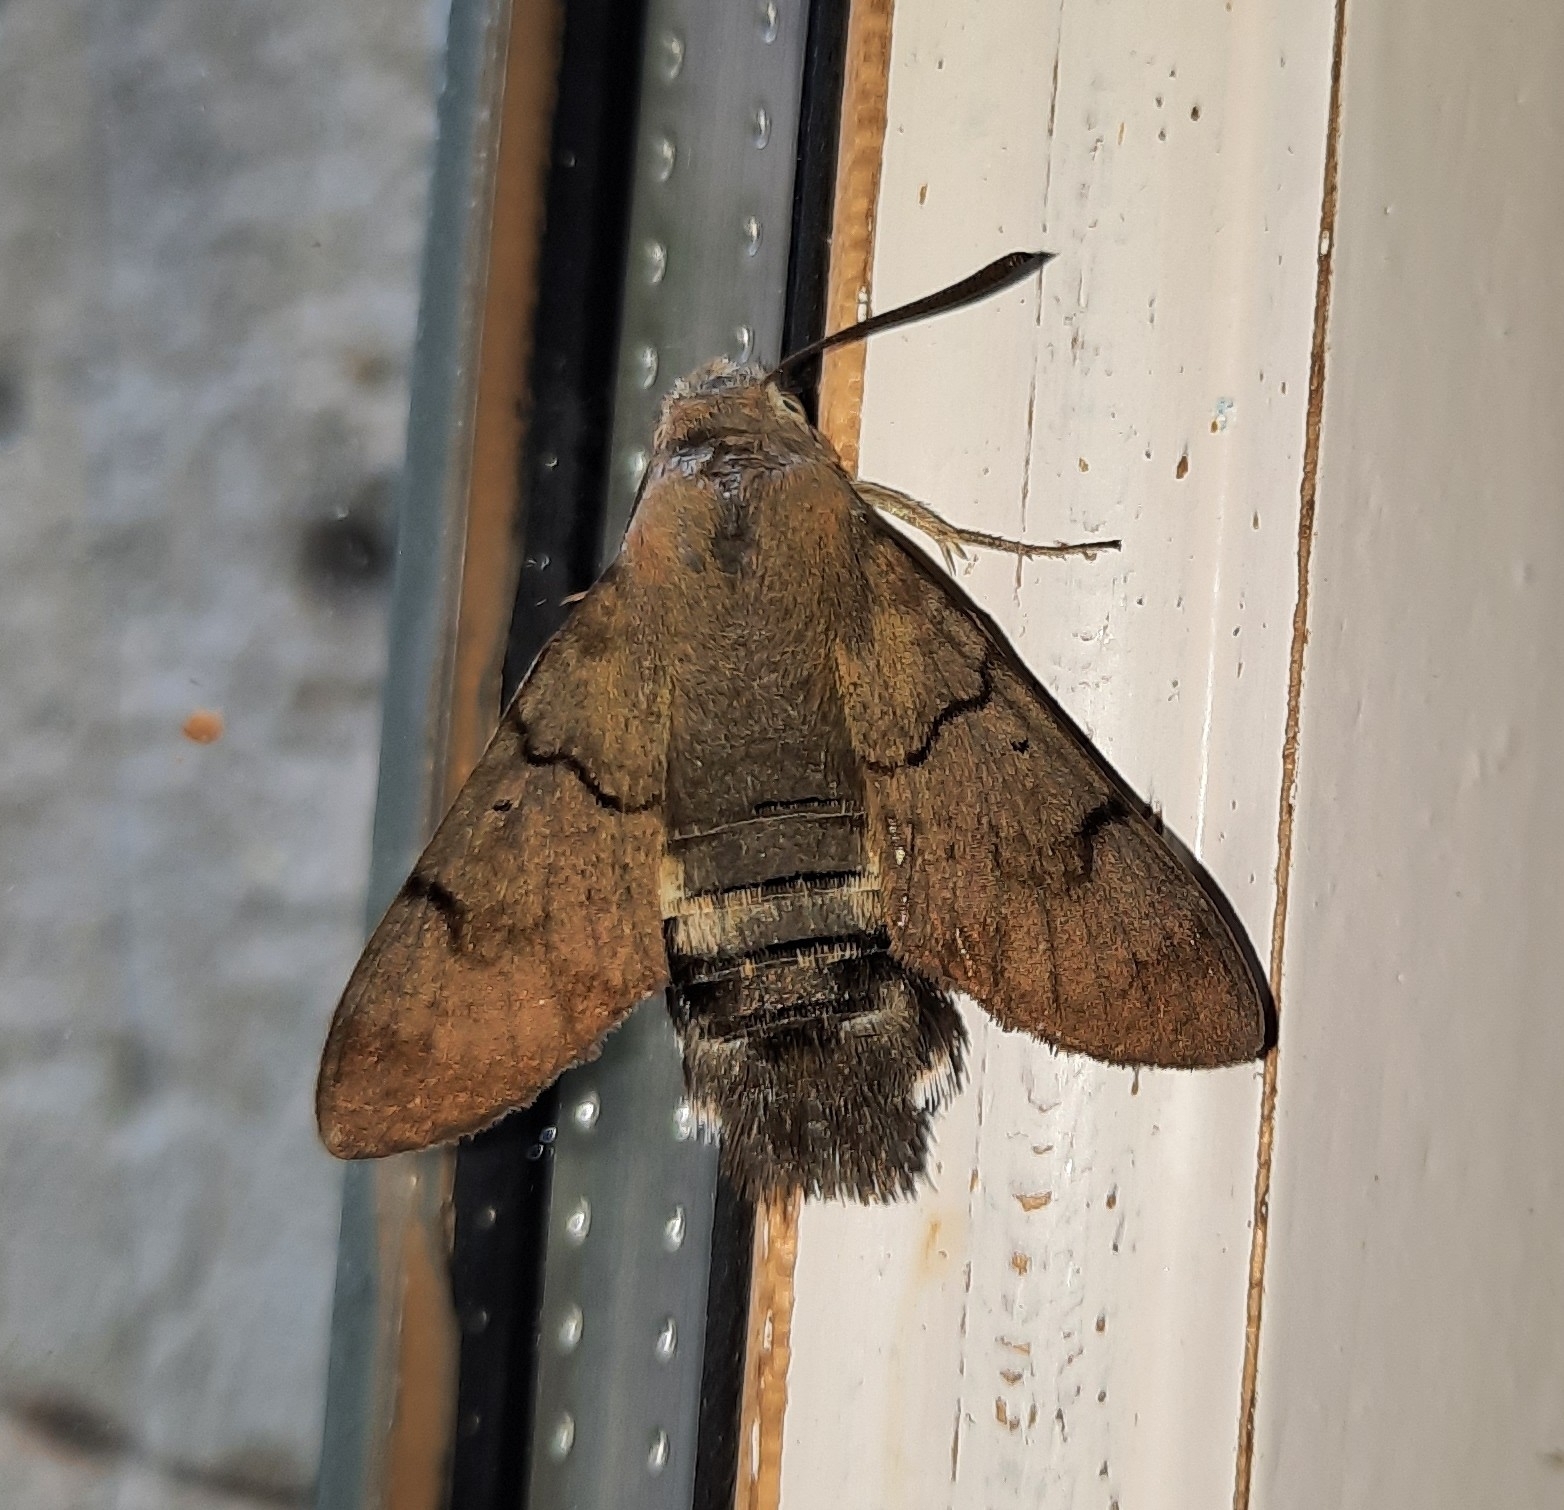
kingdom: Animalia
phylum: Arthropoda
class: Insecta
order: Lepidoptera
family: Sphingidae
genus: Macroglossum
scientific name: Macroglossum stellatarum
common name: Humming-bird hawk-moth
